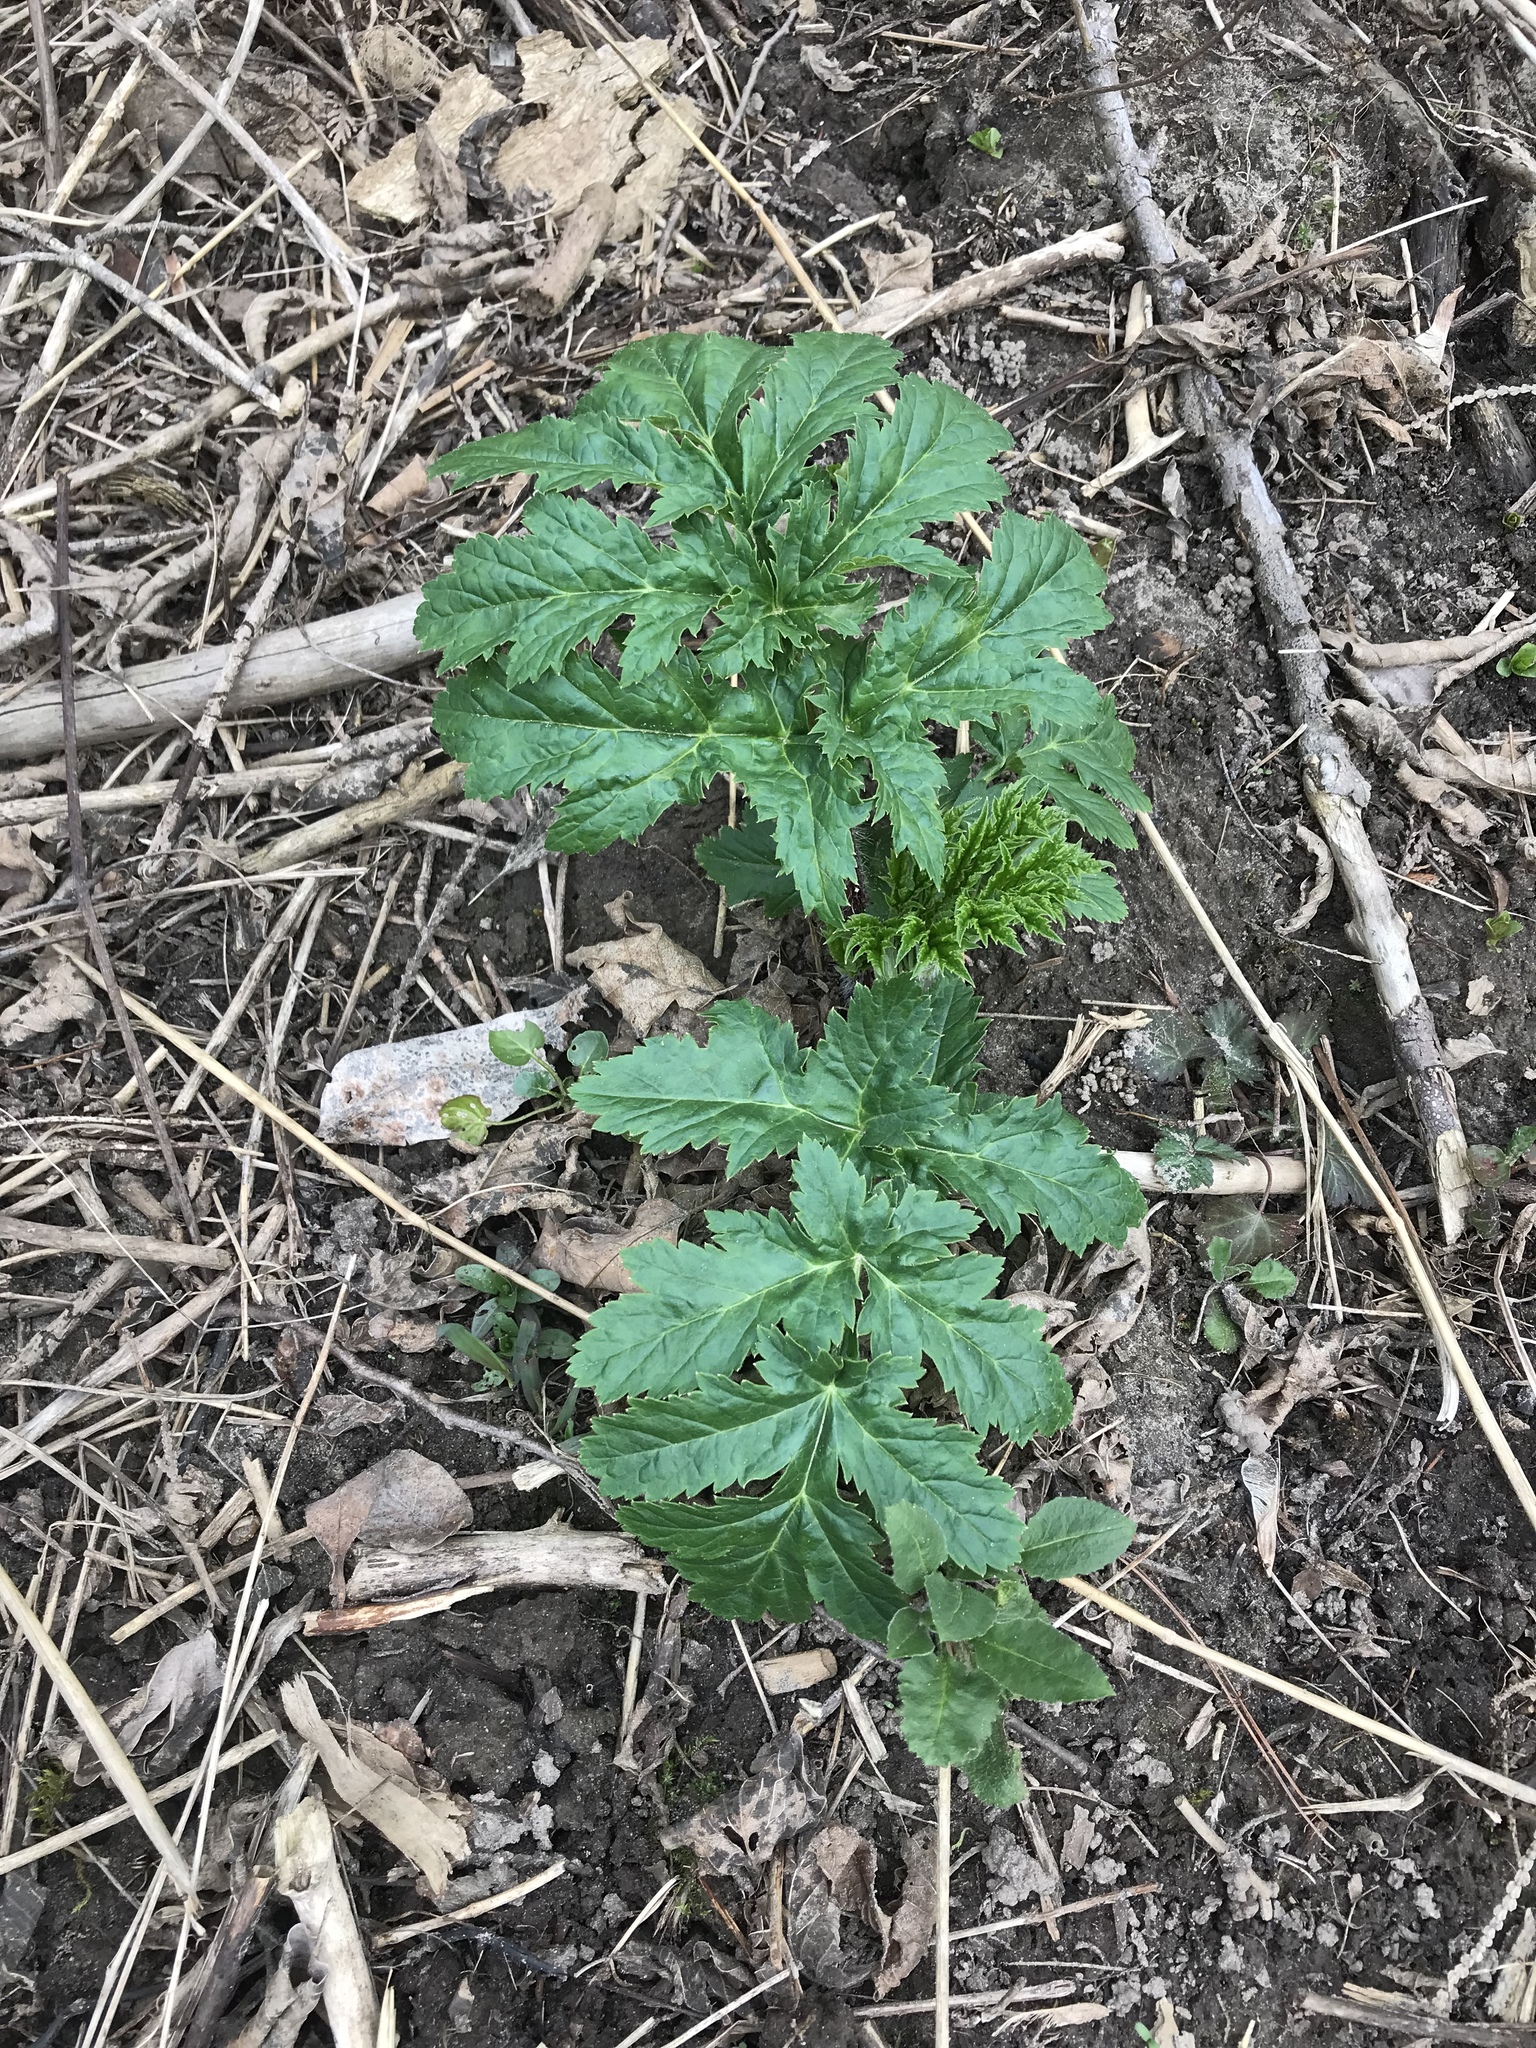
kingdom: Plantae
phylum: Tracheophyta
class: Magnoliopsida
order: Apiales
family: Apiaceae
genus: Heracleum
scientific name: Heracleum mantegazzianum
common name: Giant hogweed
